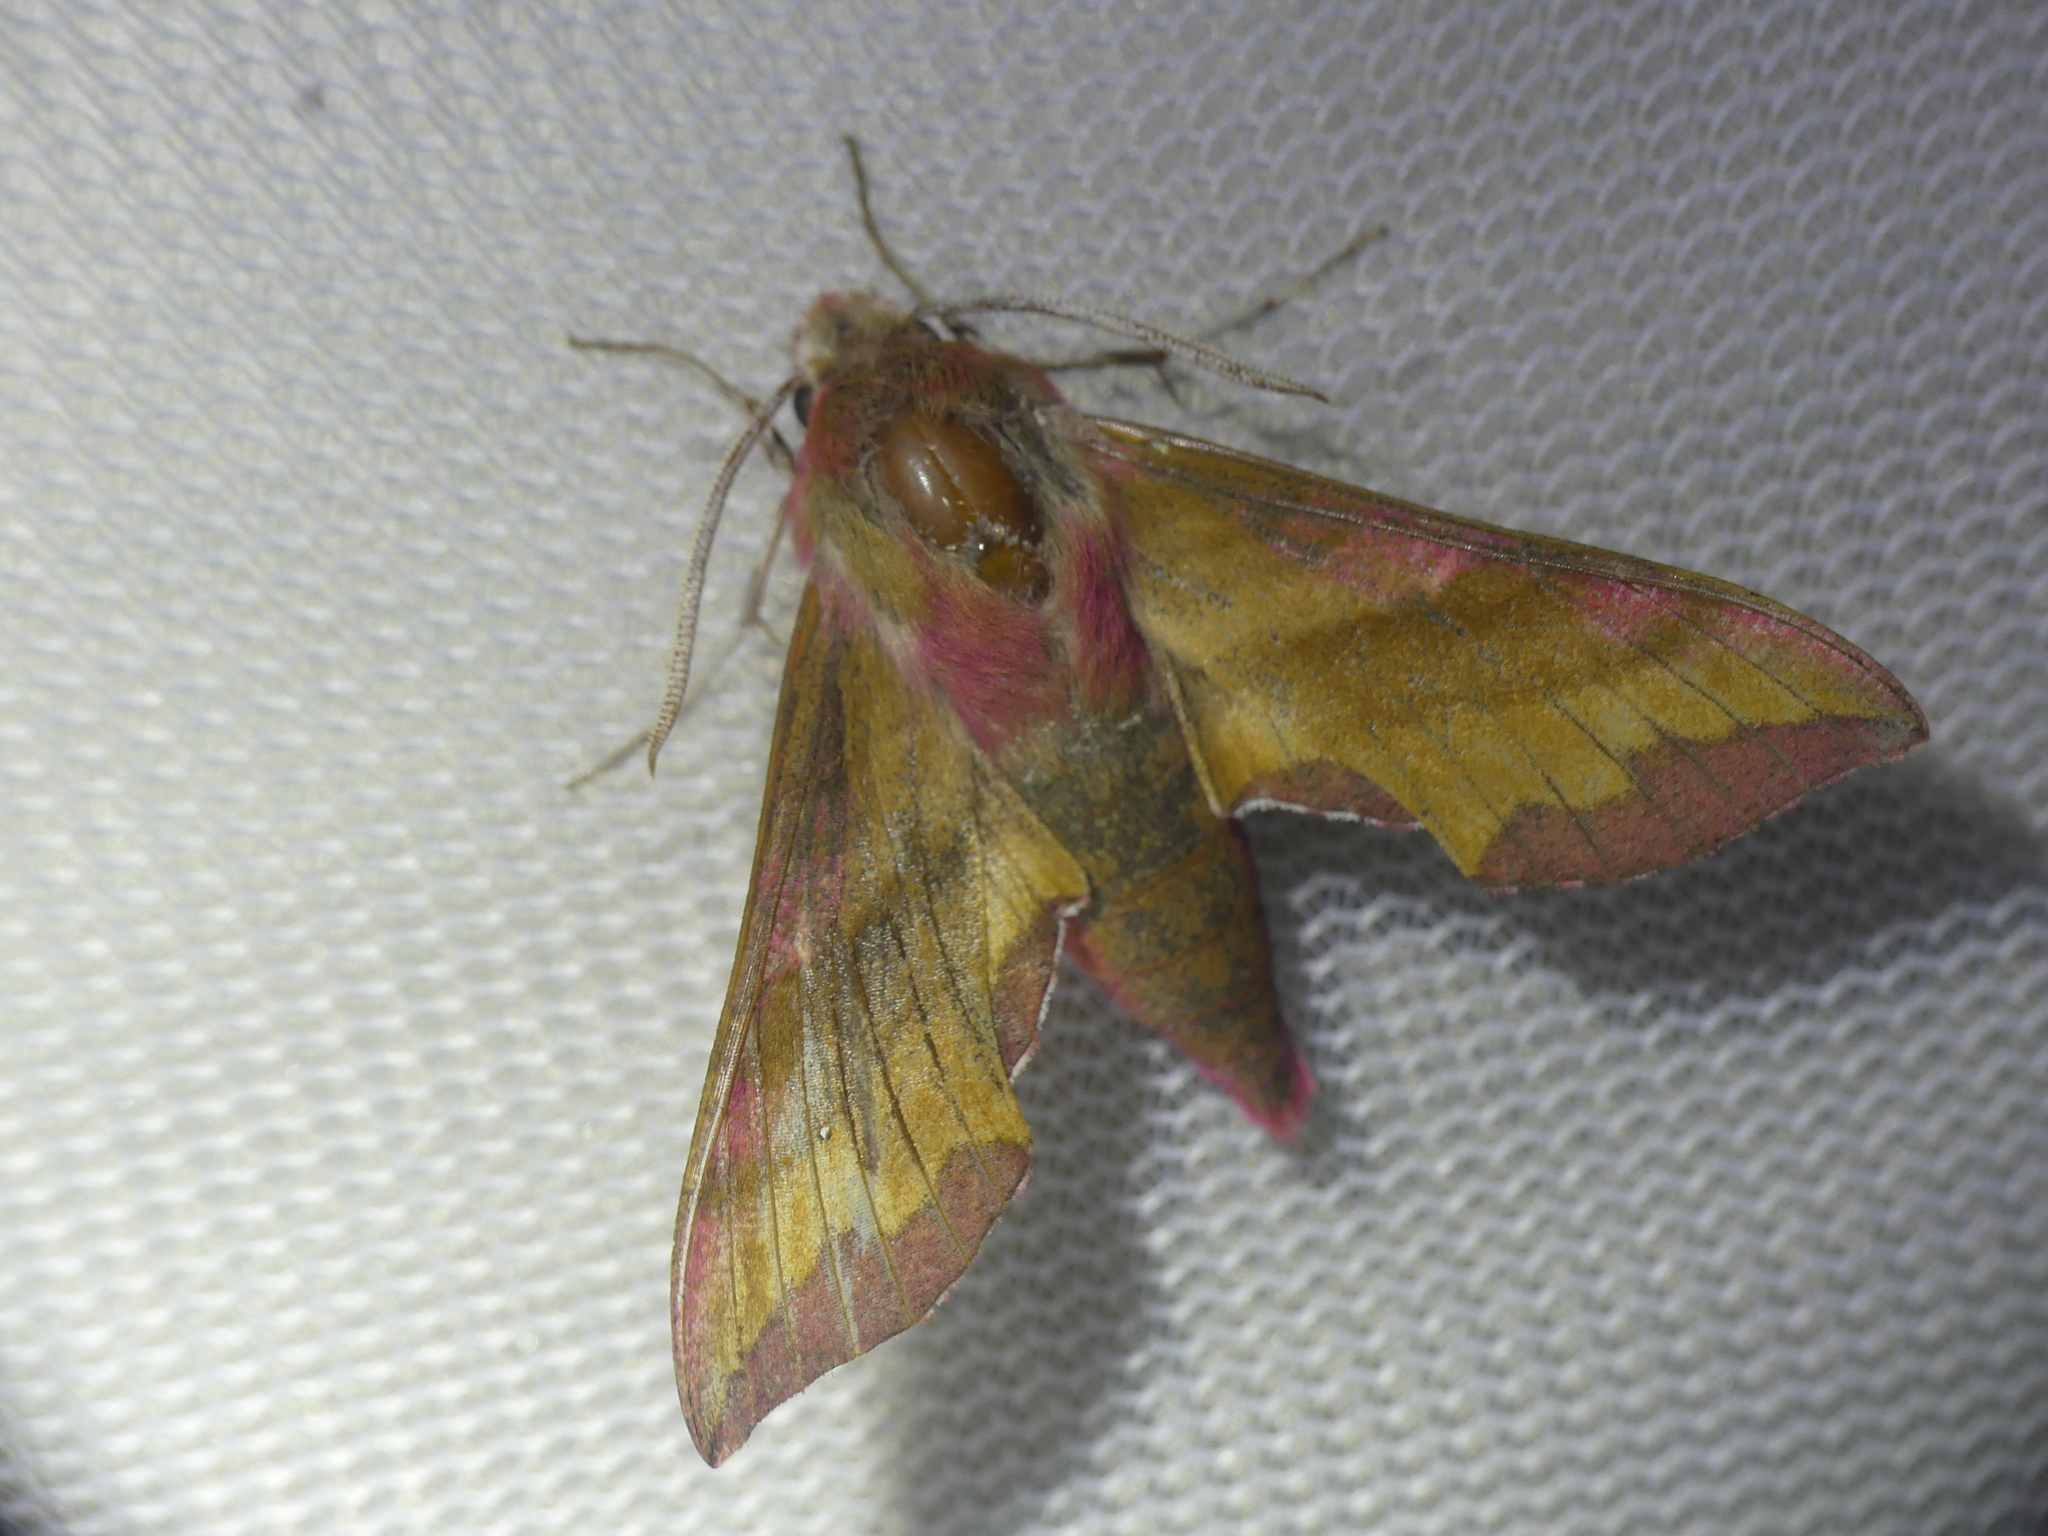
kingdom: Animalia
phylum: Arthropoda
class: Insecta
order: Lepidoptera
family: Sphingidae
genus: Deilephila
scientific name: Deilephila porcellus
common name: Small elephant hawk-moth
